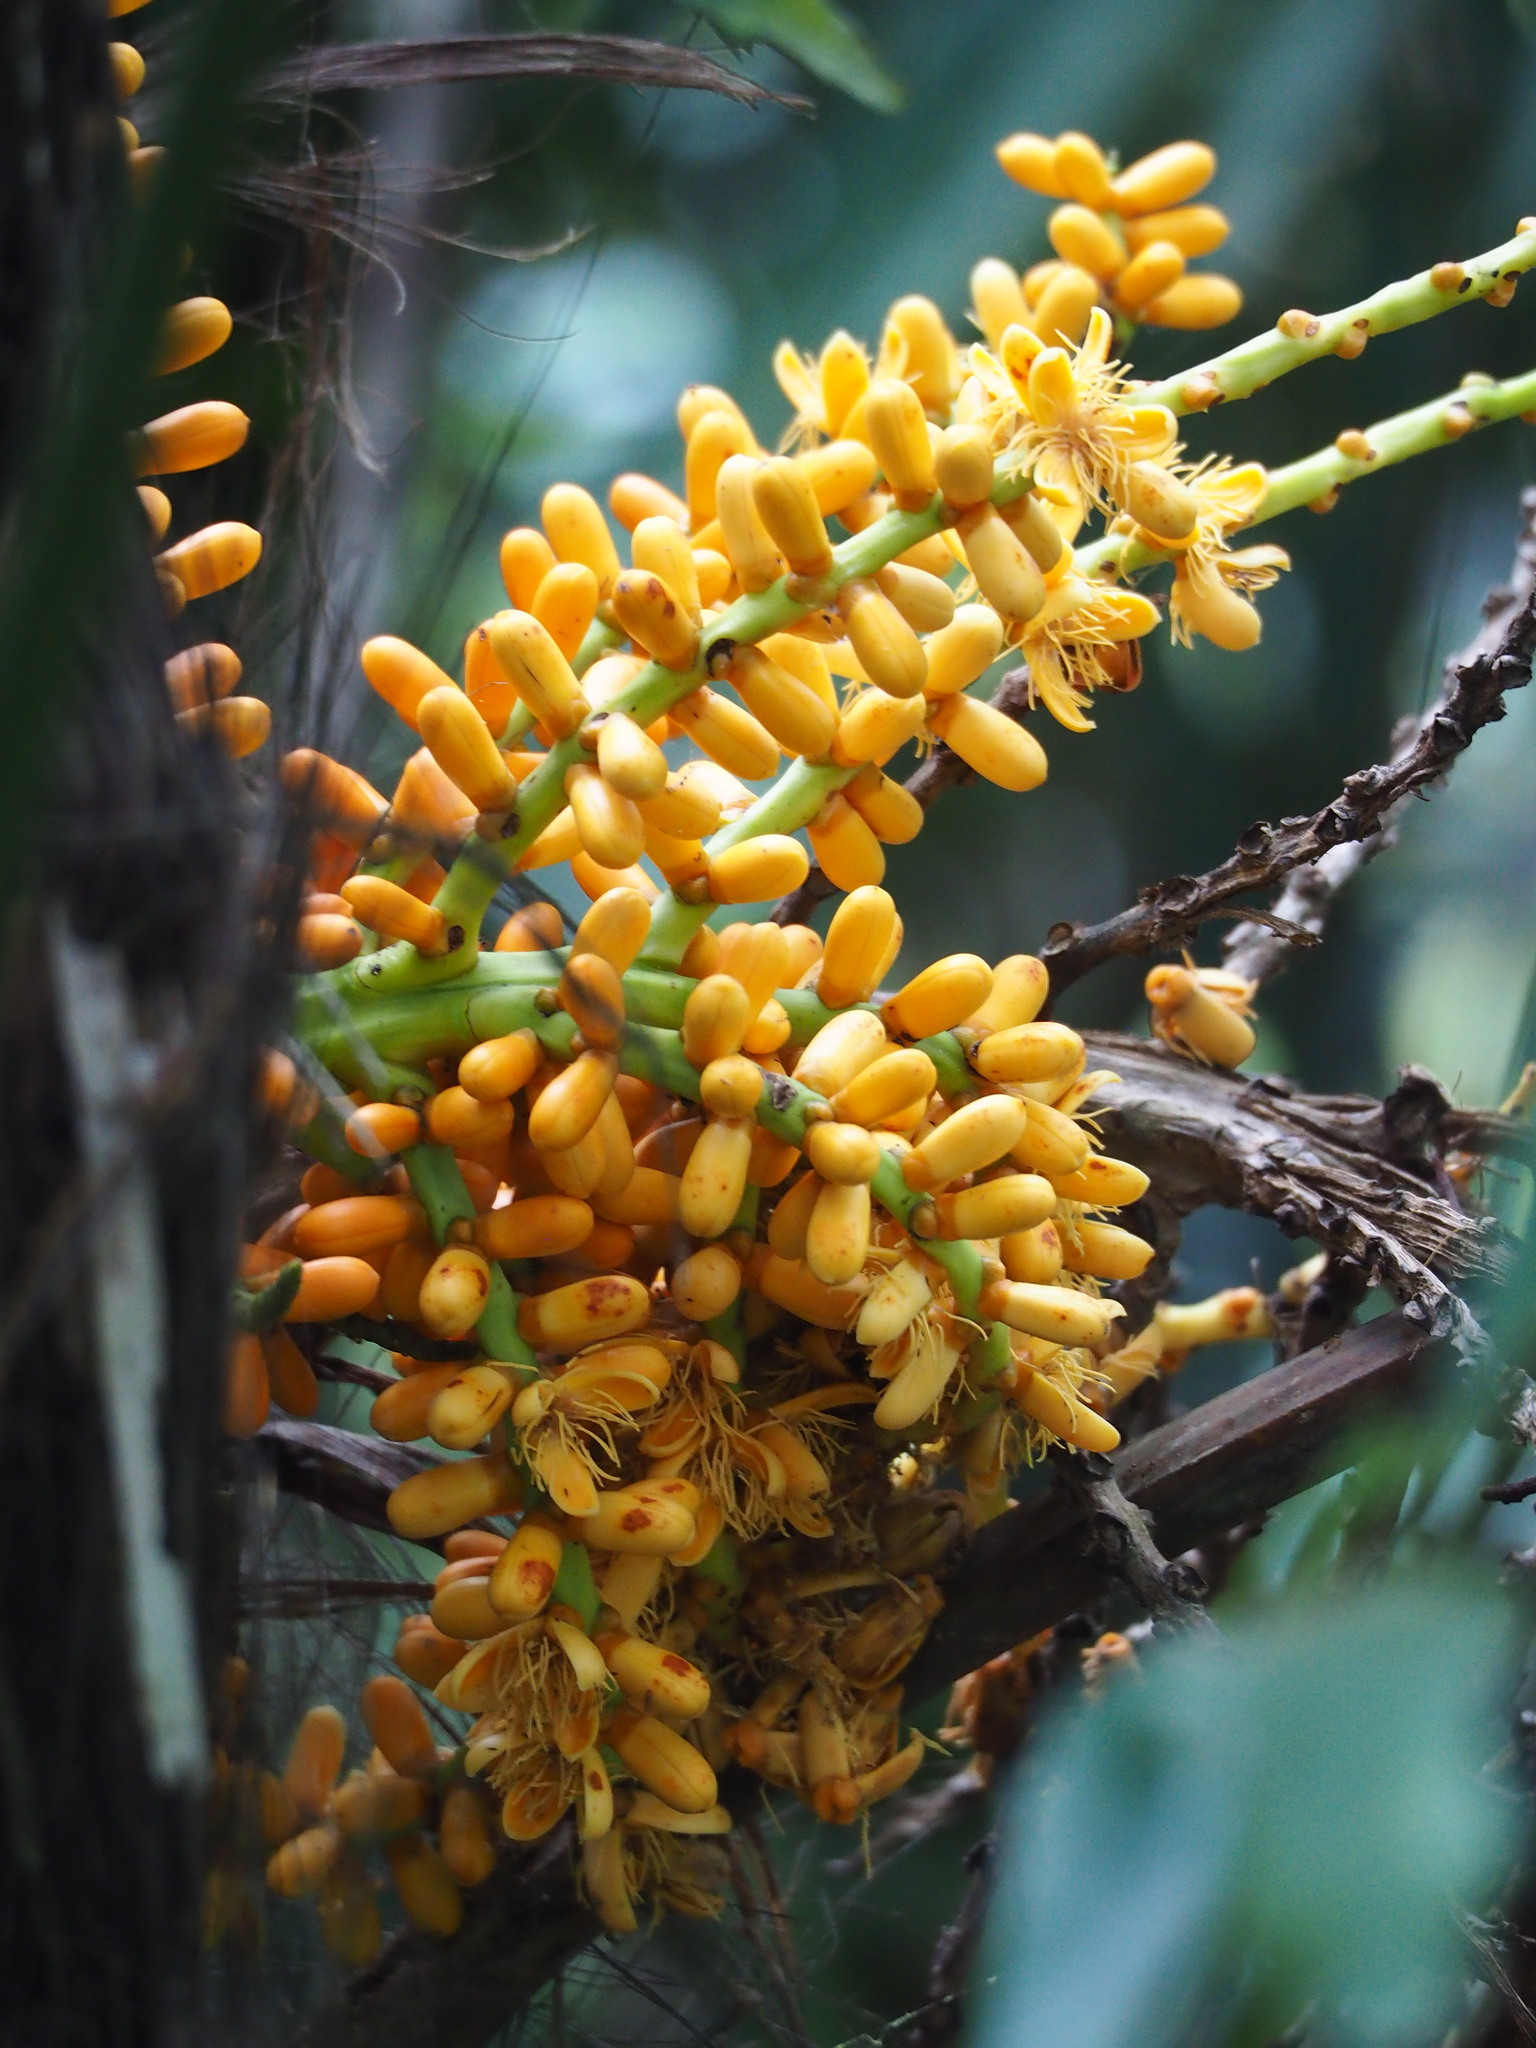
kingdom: Plantae
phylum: Tracheophyta
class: Liliopsida
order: Arecales
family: Arecaceae
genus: Arenga
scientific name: Arenga engleri
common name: Formosan sugar palm
